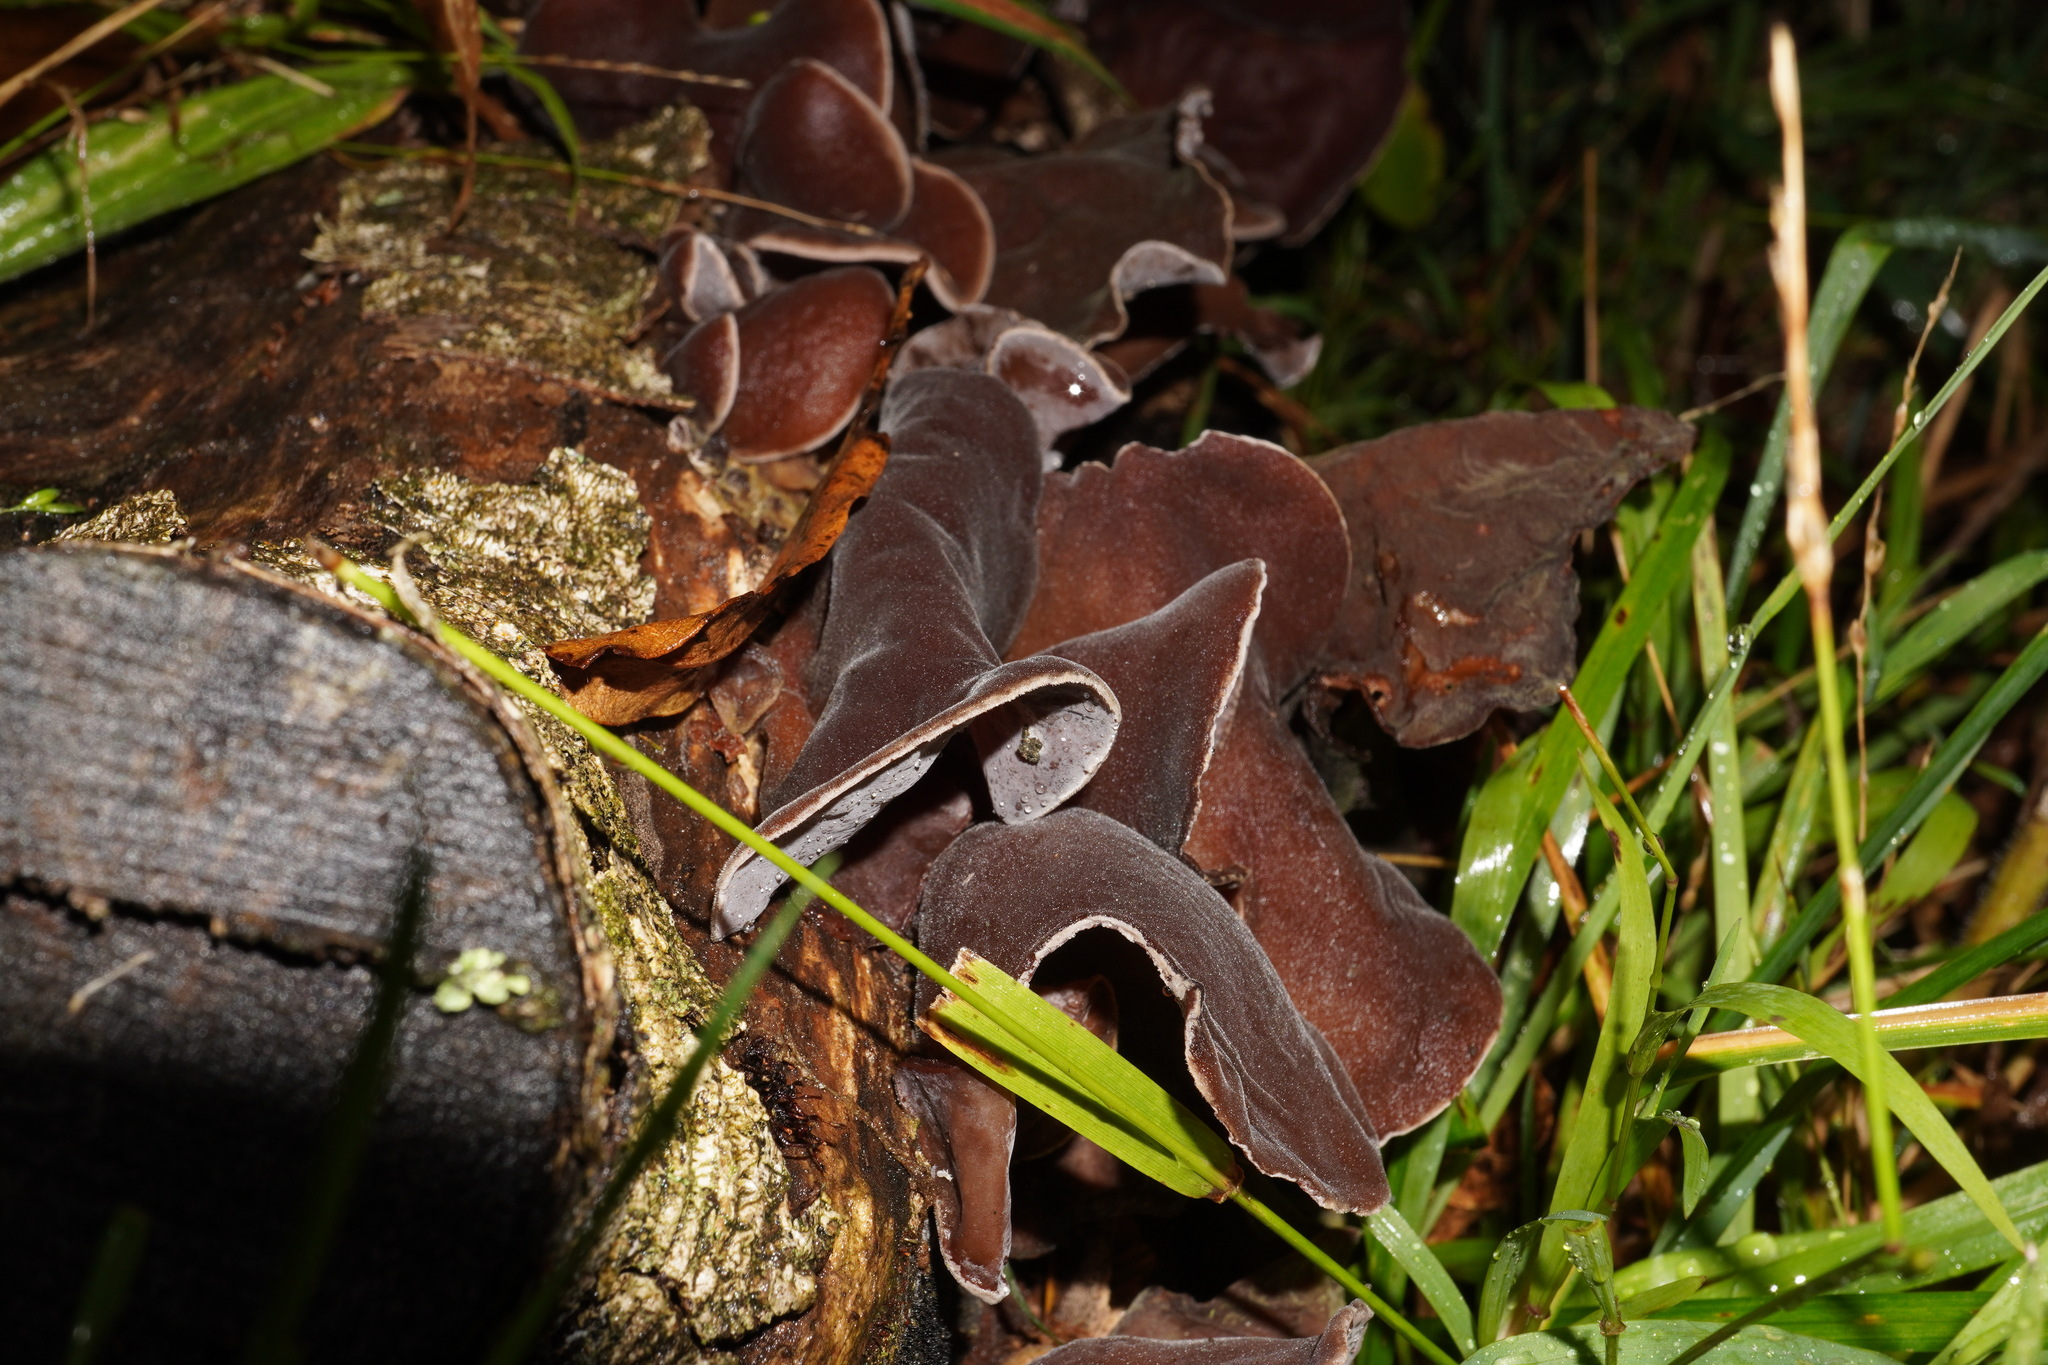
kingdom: Fungi
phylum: Basidiomycota
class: Agaricomycetes
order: Auriculariales
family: Auriculariaceae
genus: Auricularia
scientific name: Auricularia cornea
